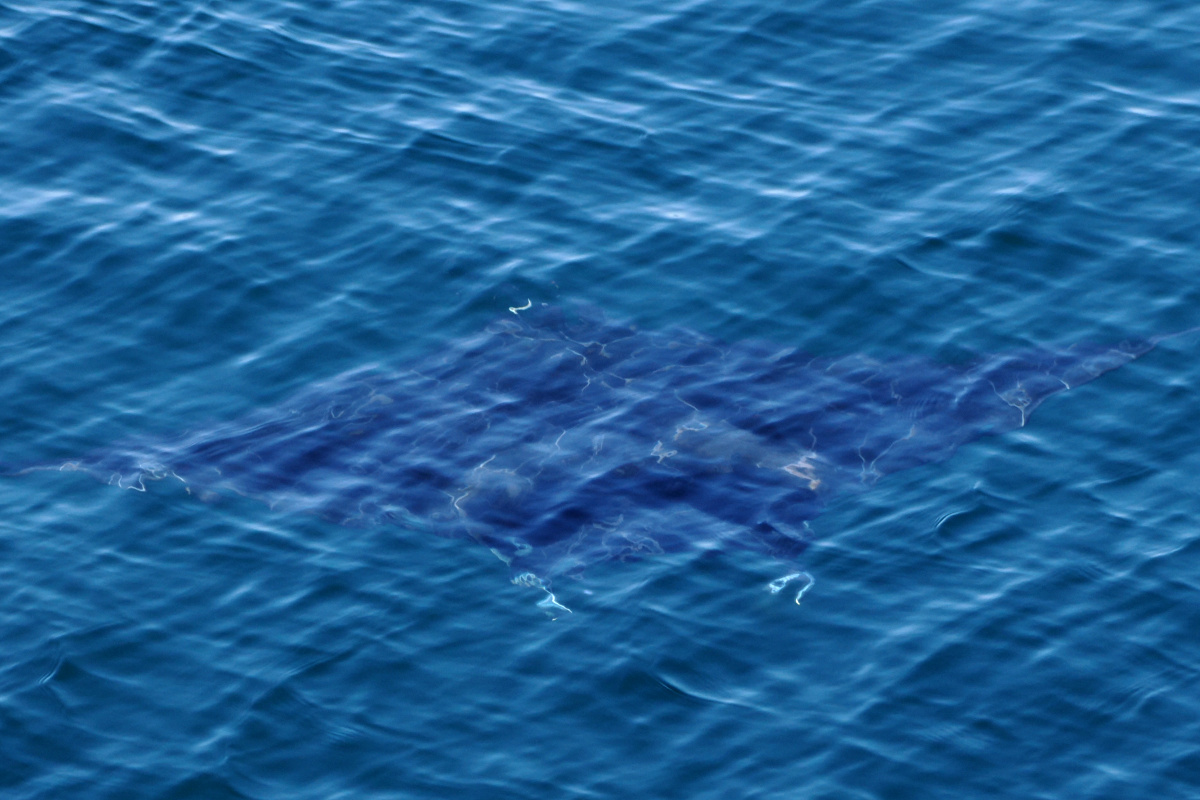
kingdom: Animalia
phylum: Chordata
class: Elasmobranchii
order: Myliobatiformes
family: Myliobatidae
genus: Mobula
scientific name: Mobula birostris
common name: Manta ray
